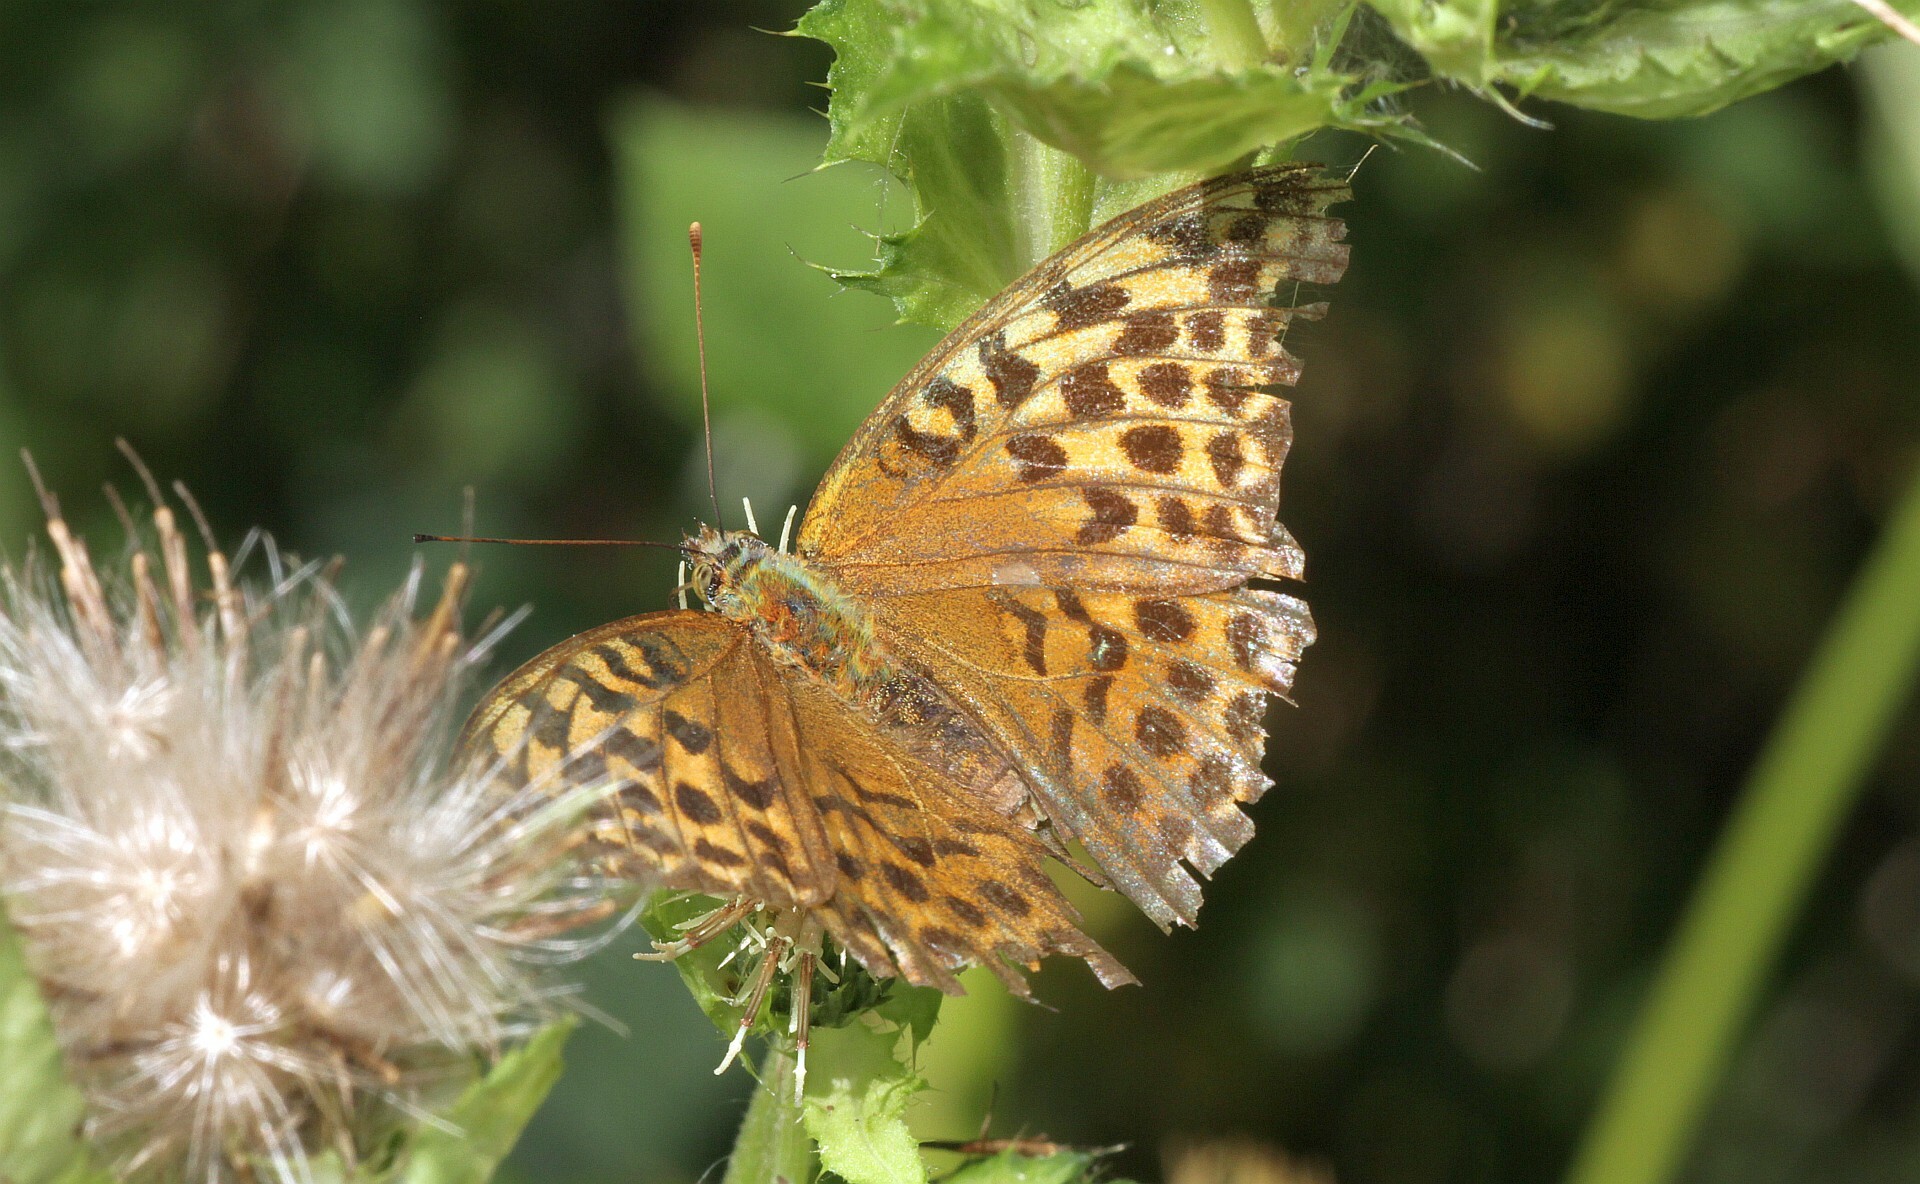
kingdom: Animalia
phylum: Arthropoda
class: Insecta
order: Lepidoptera
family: Nymphalidae
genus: Argynnis
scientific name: Argynnis paphia
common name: Silver-washed fritillary
